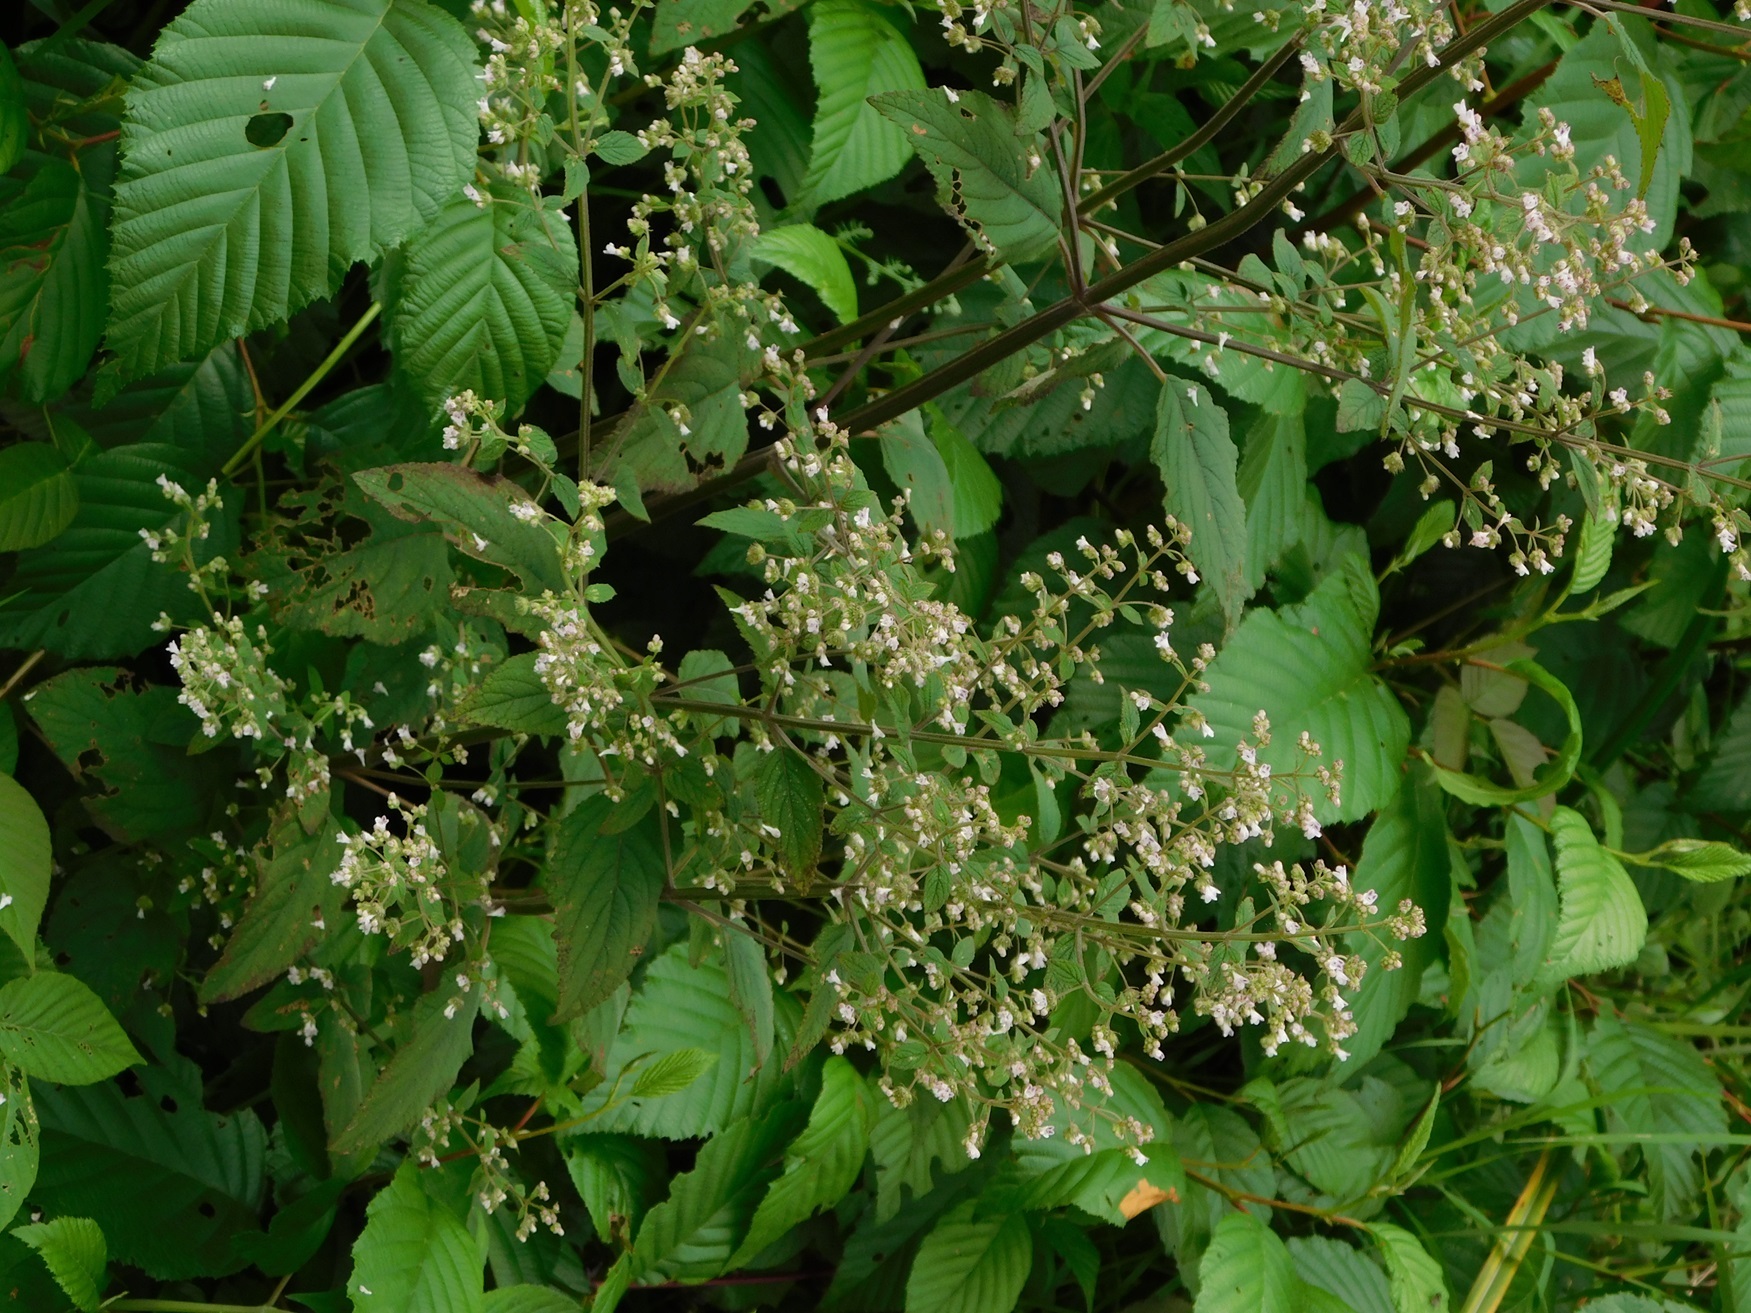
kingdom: Plantae
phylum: Tracheophyta
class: Magnoliopsida
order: Lamiales
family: Lamiaceae
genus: Mesosphaerum
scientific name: Mesosphaerum urticoides
